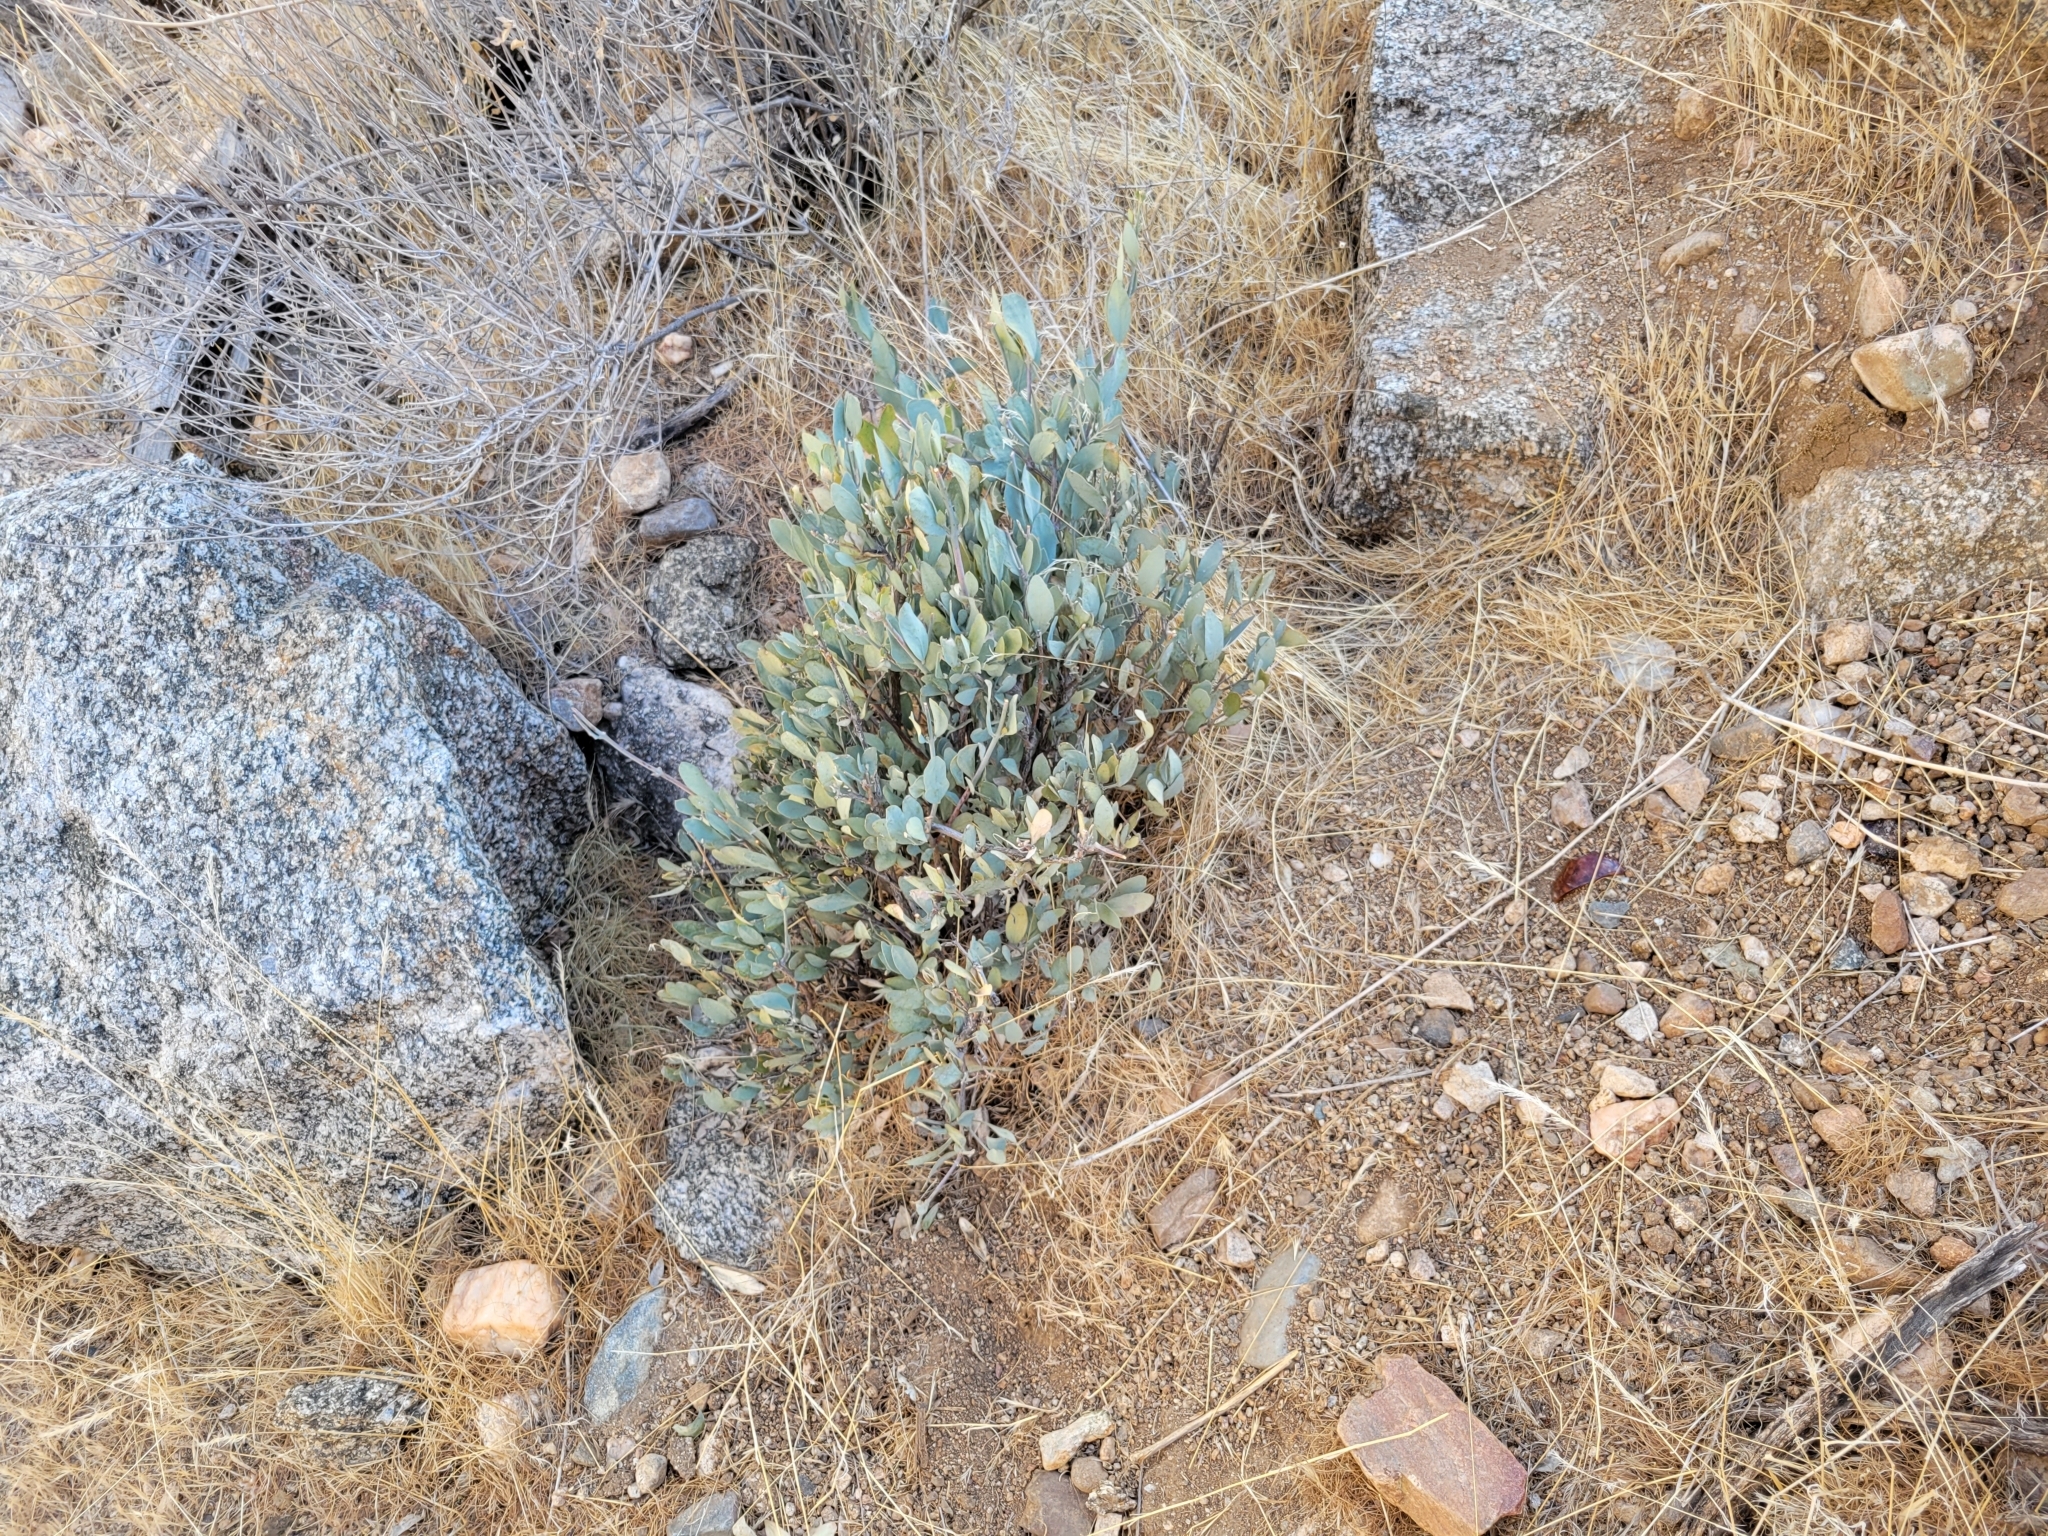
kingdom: Plantae
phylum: Tracheophyta
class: Magnoliopsida
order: Caryophyllales
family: Simmondsiaceae
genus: Simmondsia
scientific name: Simmondsia chinensis
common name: Jojoba
